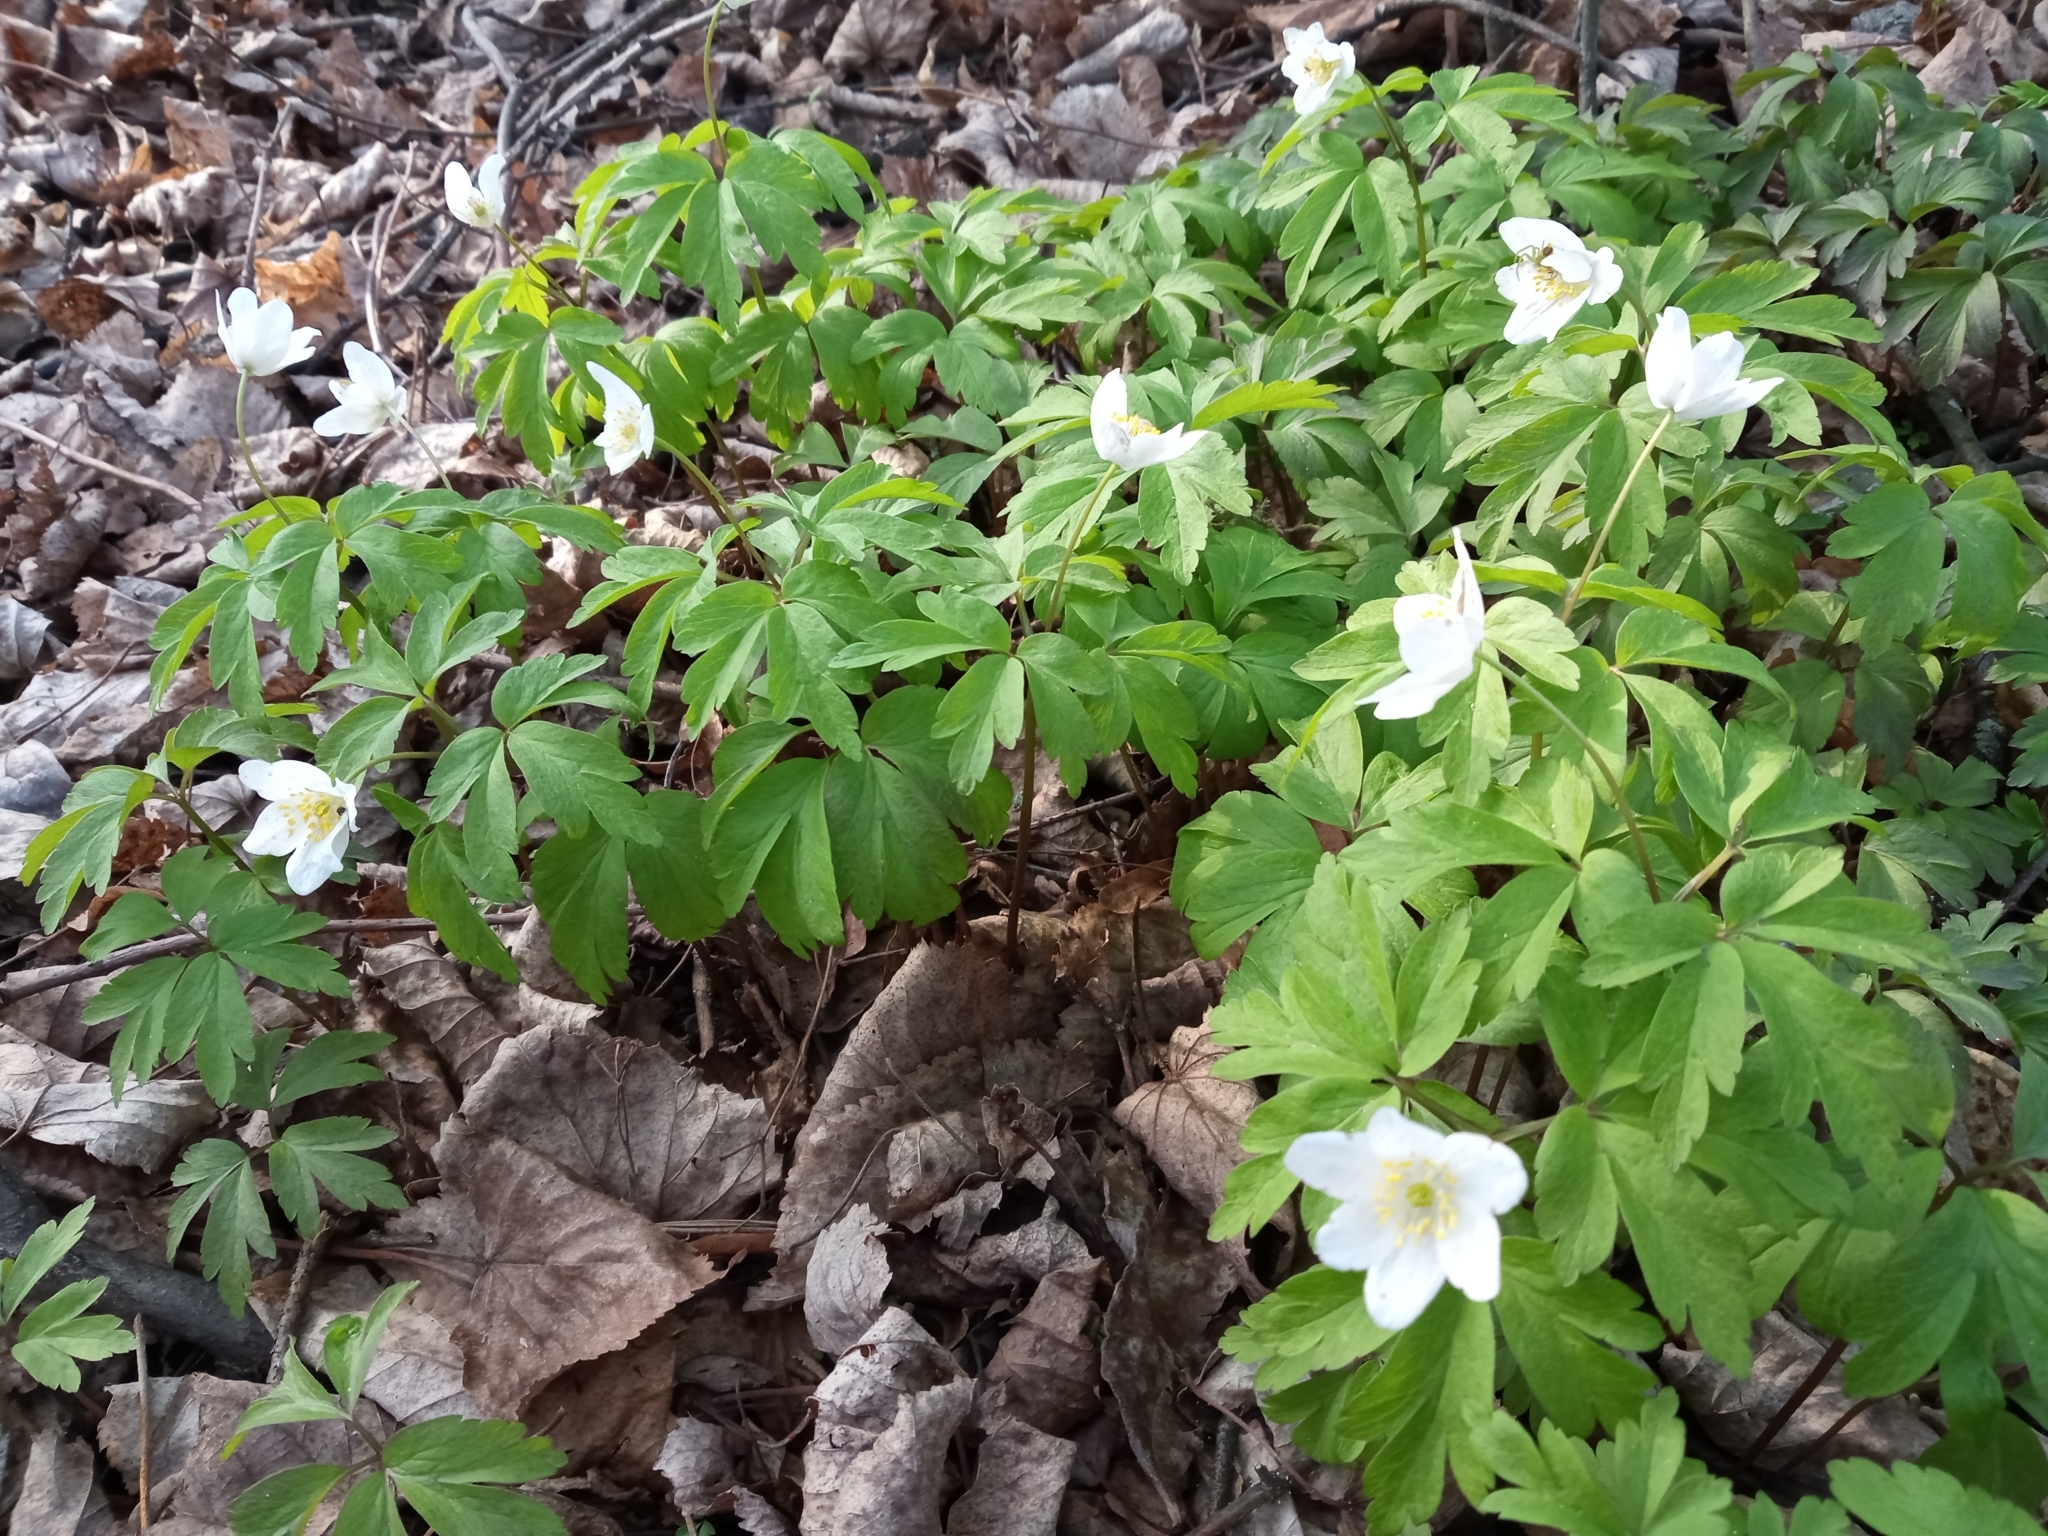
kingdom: Plantae
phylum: Tracheophyta
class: Magnoliopsida
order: Ranunculales
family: Ranunculaceae
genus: Anemone
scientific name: Anemone nemorosa
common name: Wood anemone
